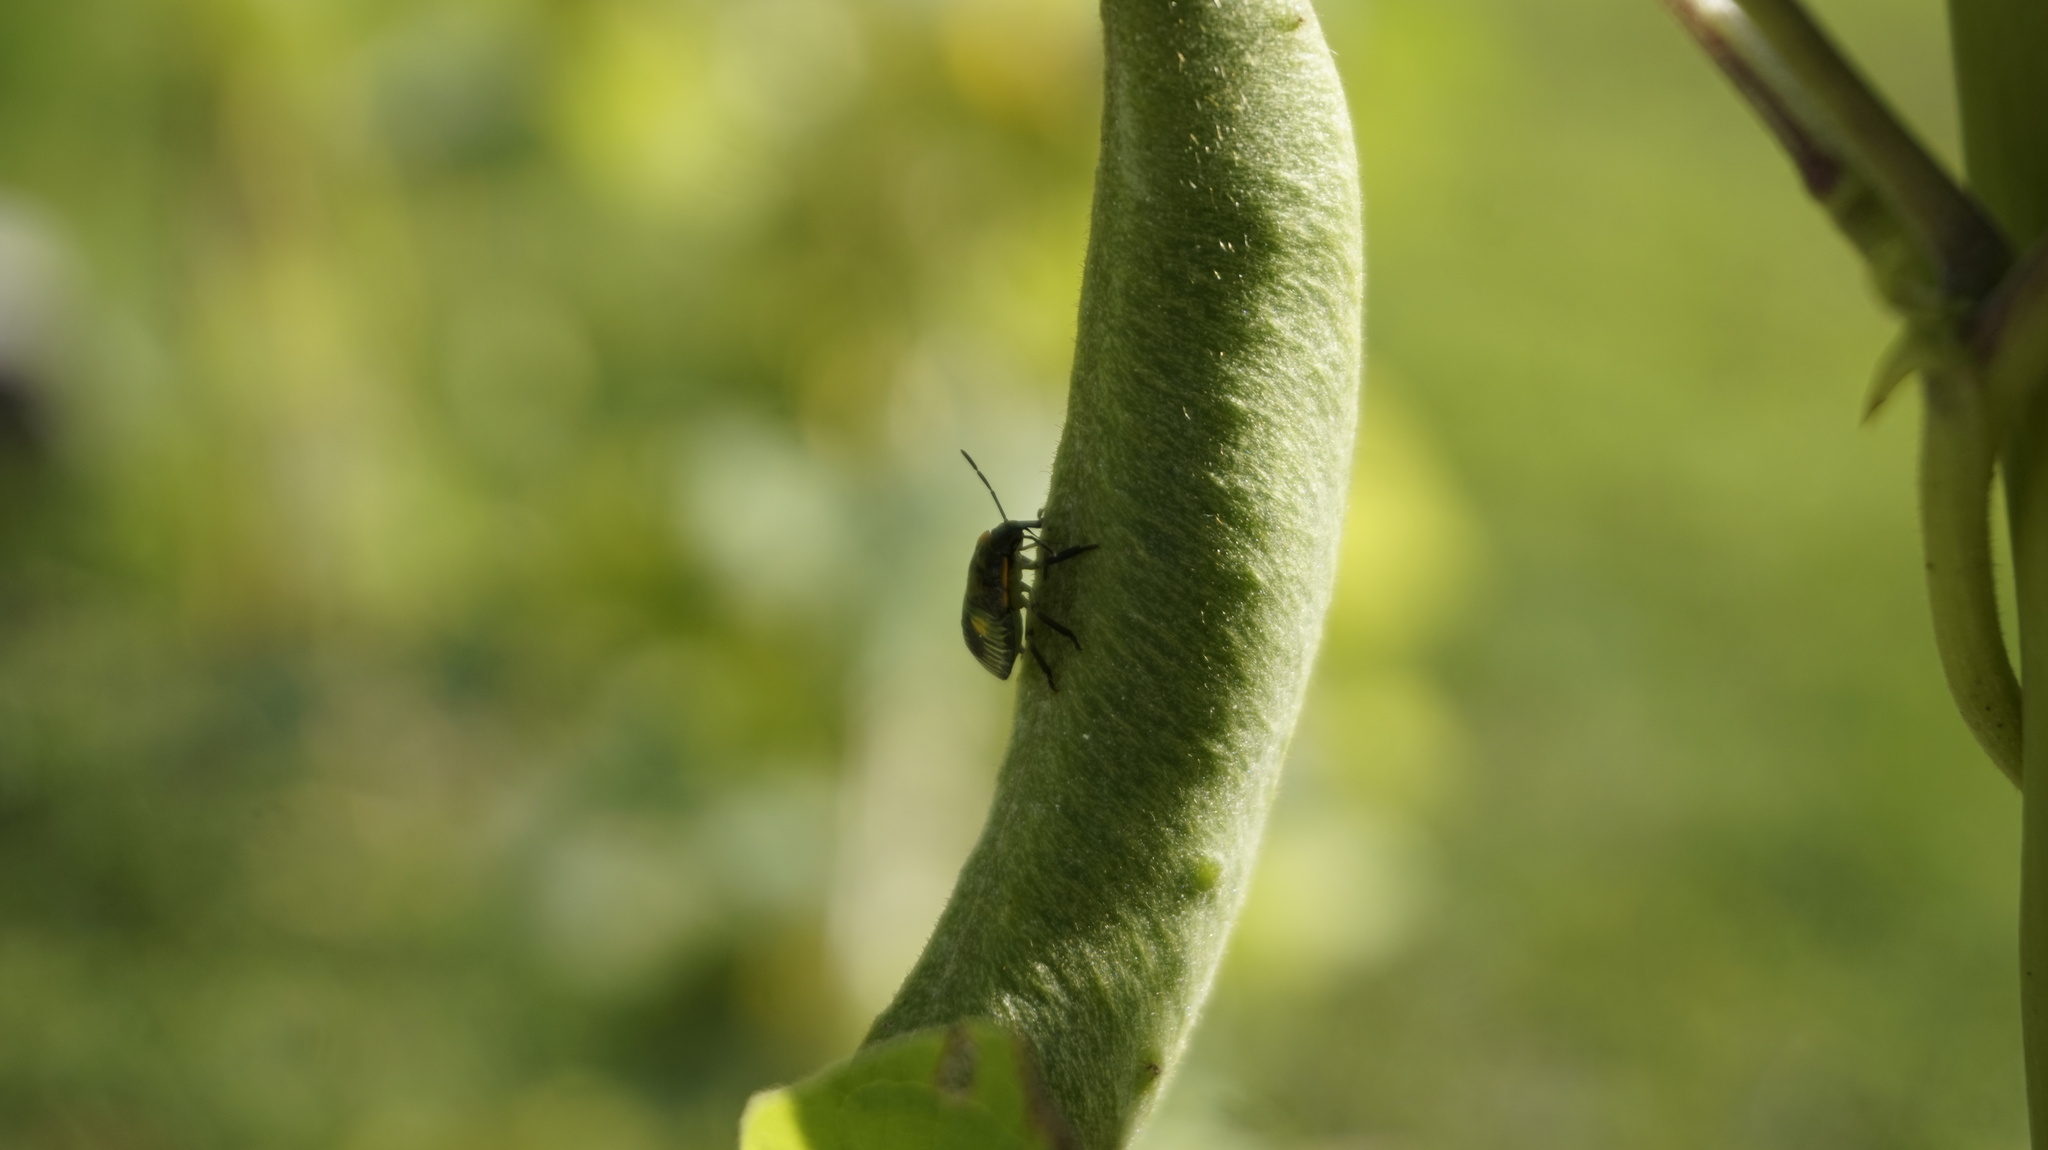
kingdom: Animalia
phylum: Arthropoda
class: Insecta
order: Hemiptera
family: Pentatomidae
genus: Chinavia
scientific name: Chinavia hilaris
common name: Green stink bug
